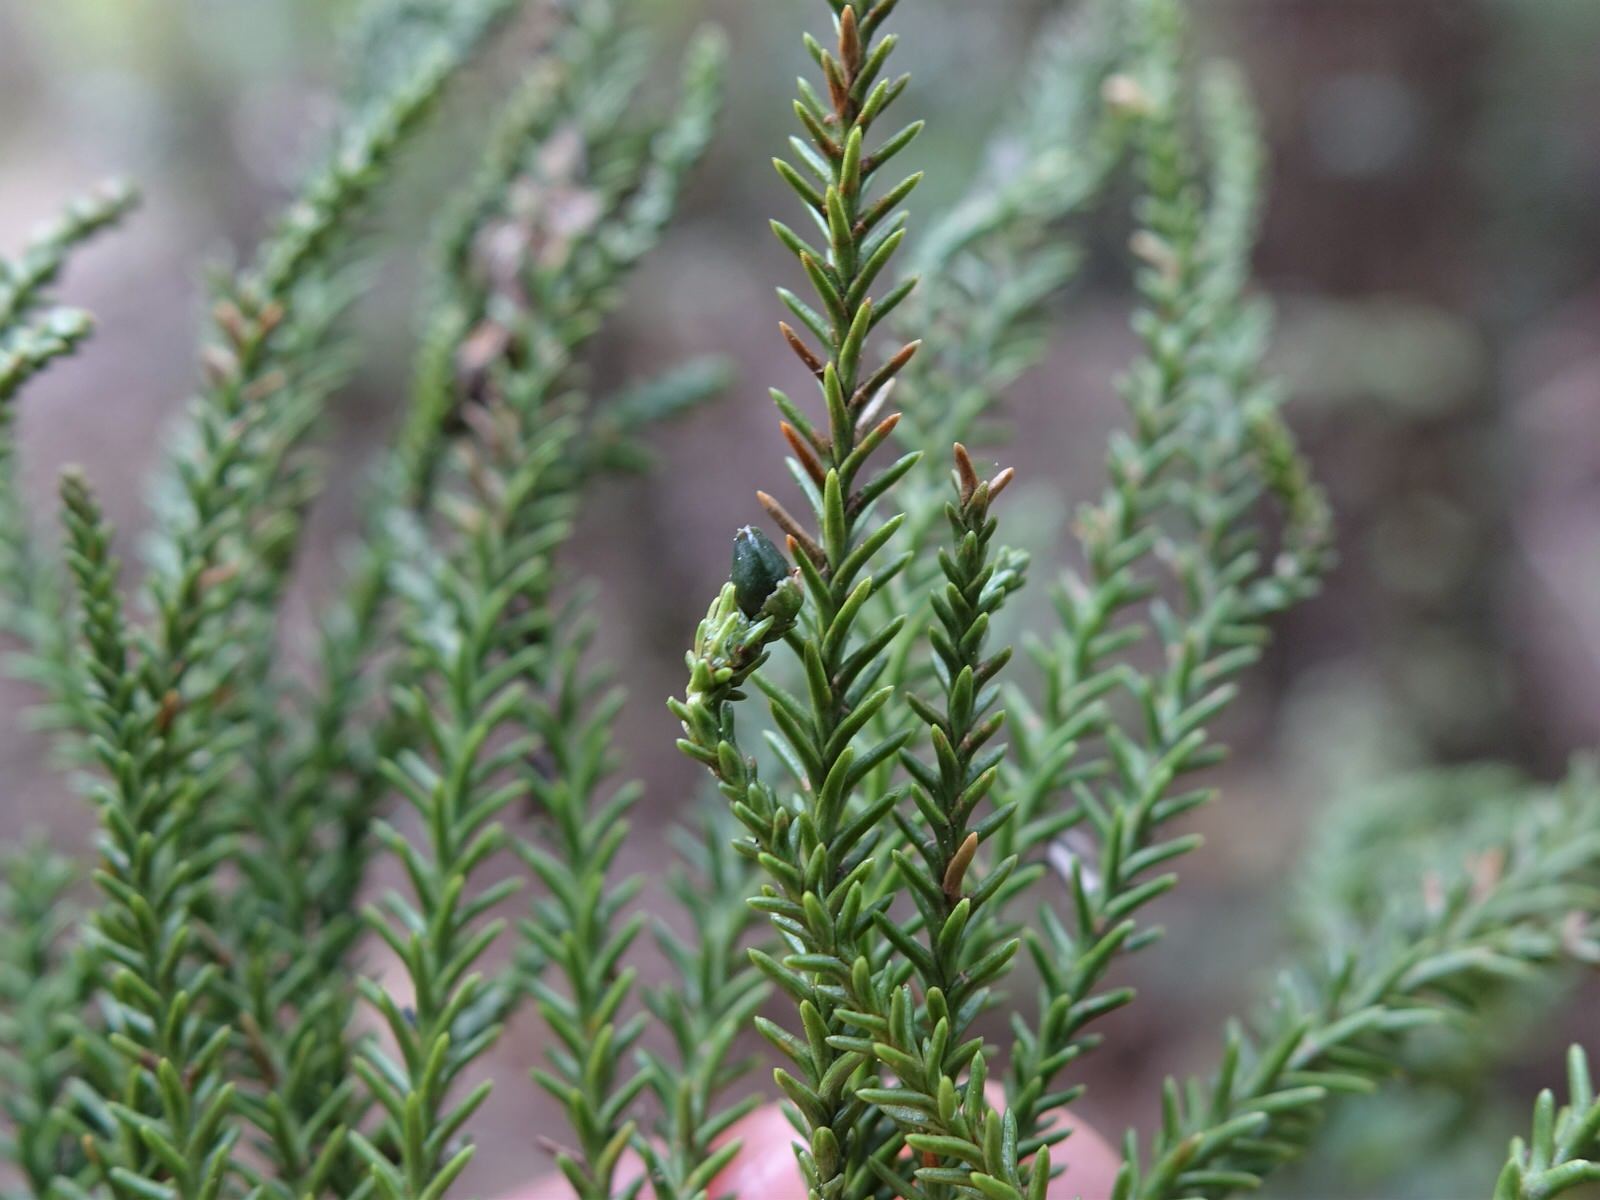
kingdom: Plantae
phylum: Tracheophyta
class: Pinopsida
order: Pinales
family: Podocarpaceae
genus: Dacrydium
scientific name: Dacrydium cupressinum
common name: Red pine
